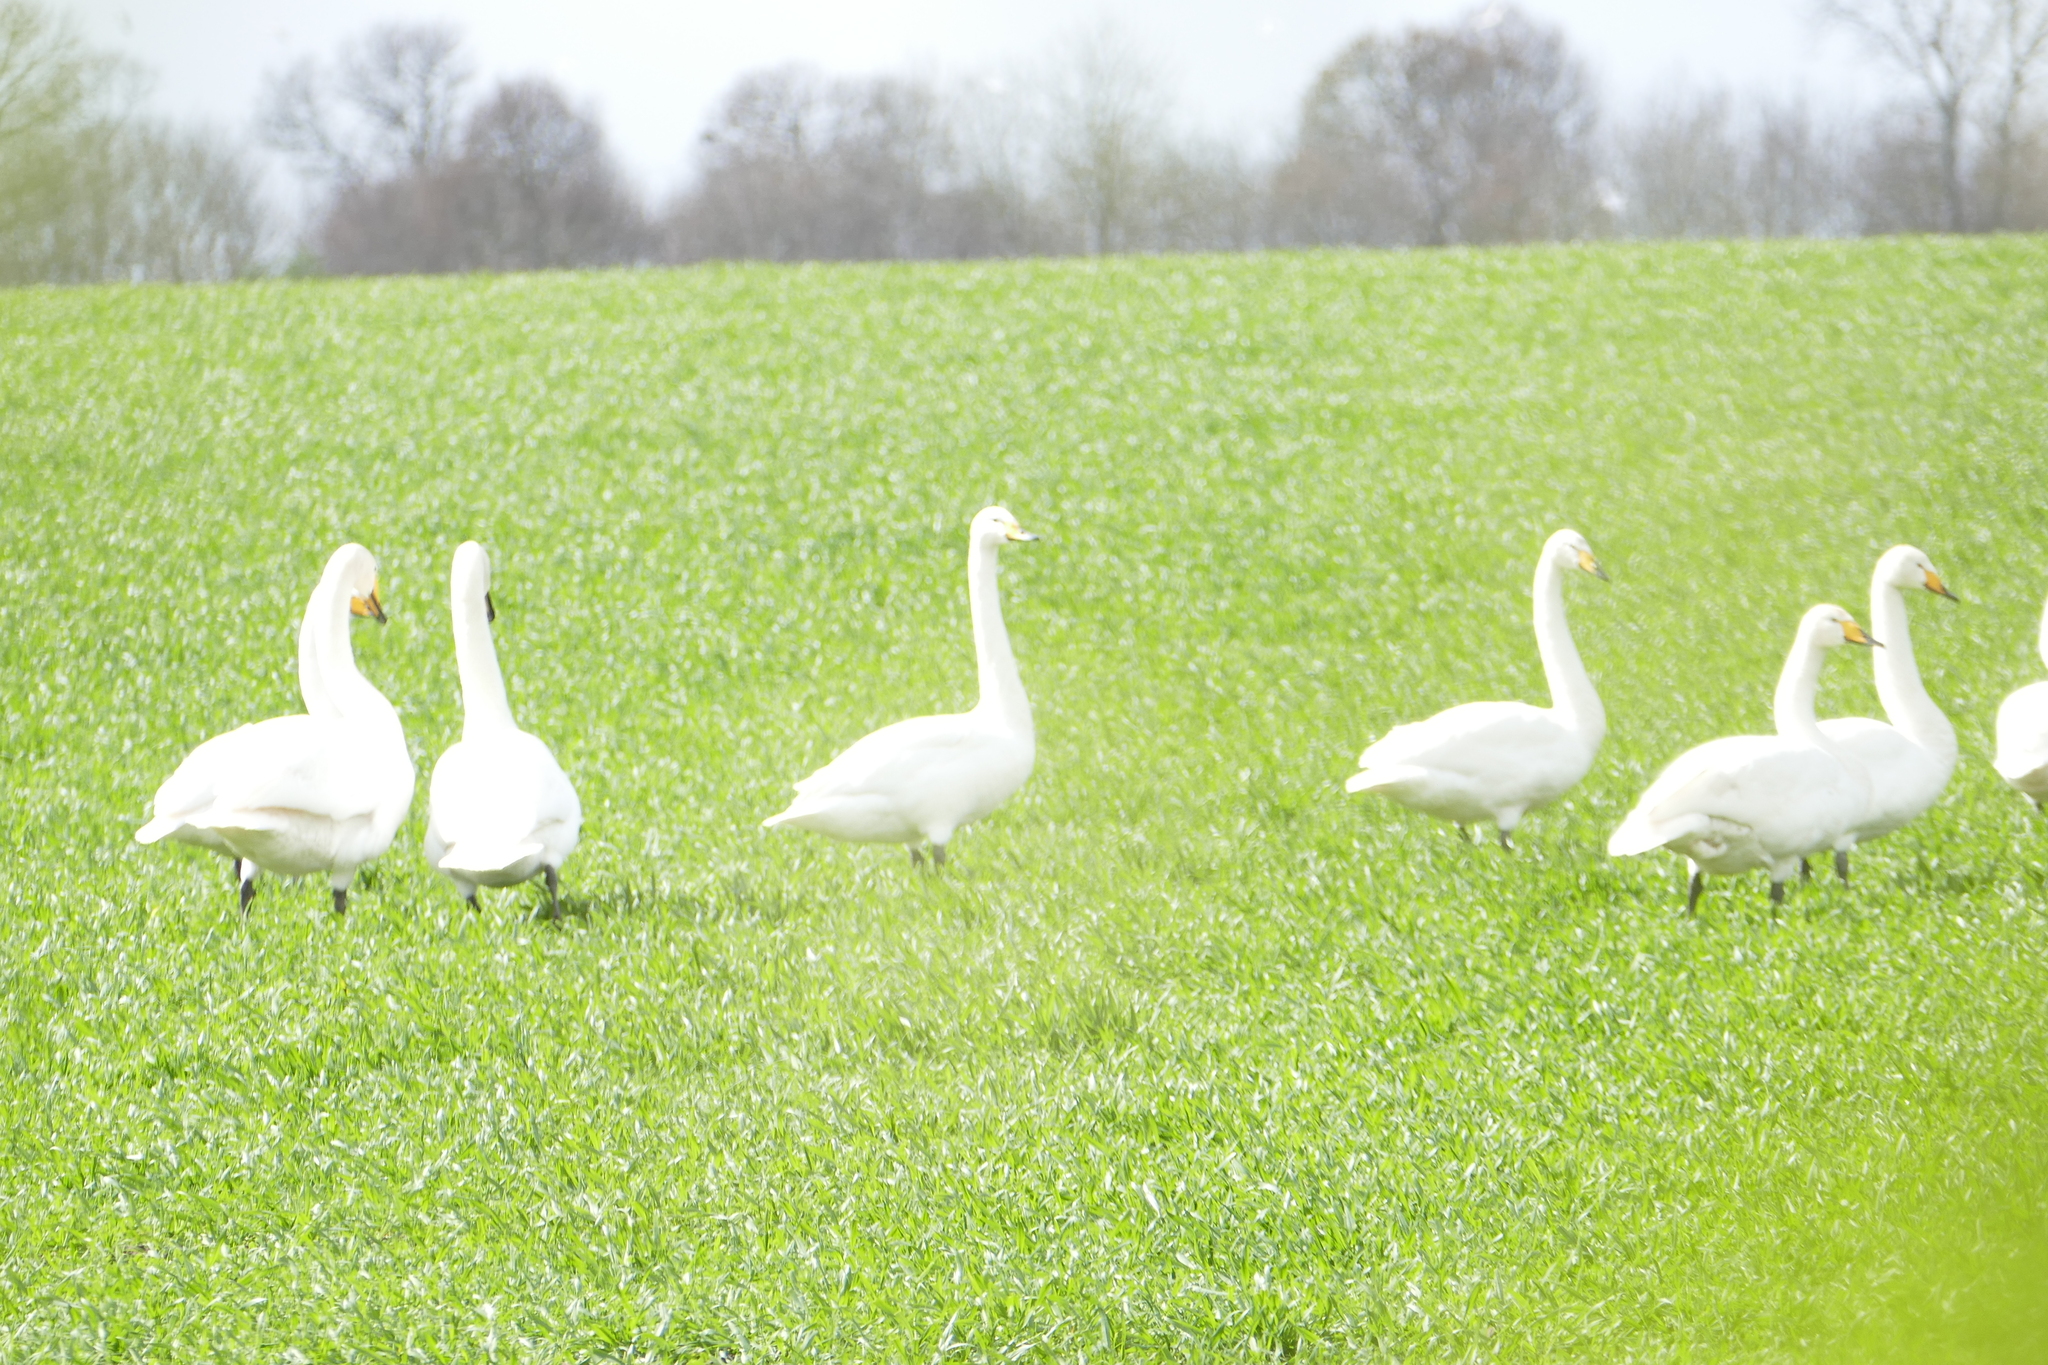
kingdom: Animalia
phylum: Chordata
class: Aves
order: Anseriformes
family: Anatidae
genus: Cygnus
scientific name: Cygnus cygnus
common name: Whooper swan
